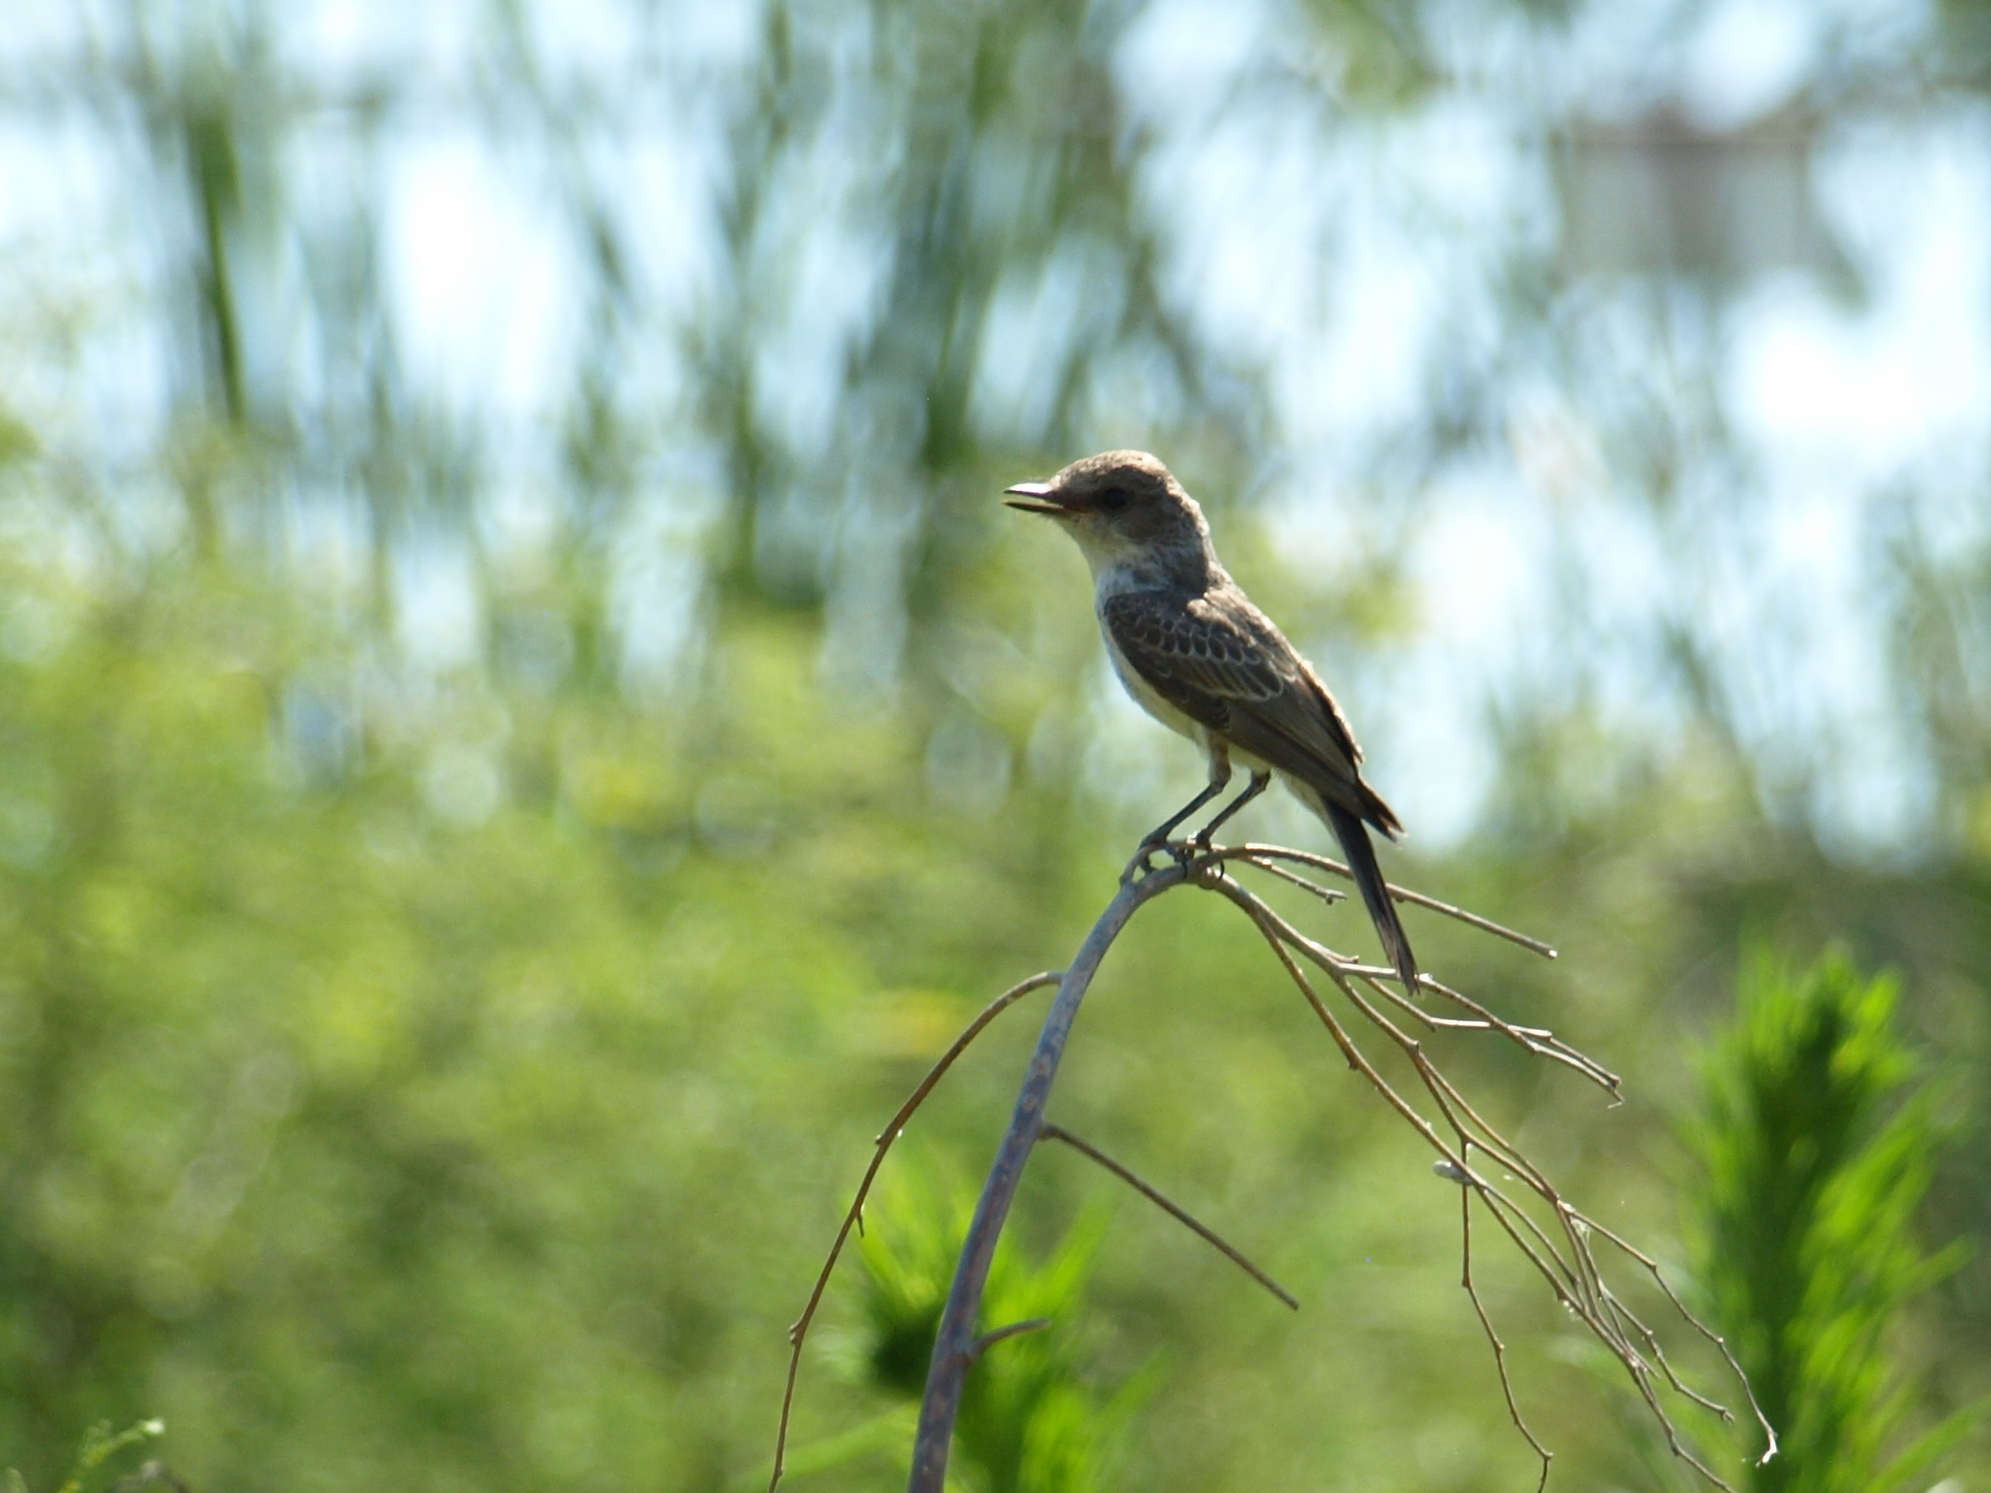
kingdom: Animalia
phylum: Chordata
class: Aves
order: Passeriformes
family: Tyrannidae
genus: Pyrocephalus
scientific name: Pyrocephalus rubinus
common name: Vermilion flycatcher
